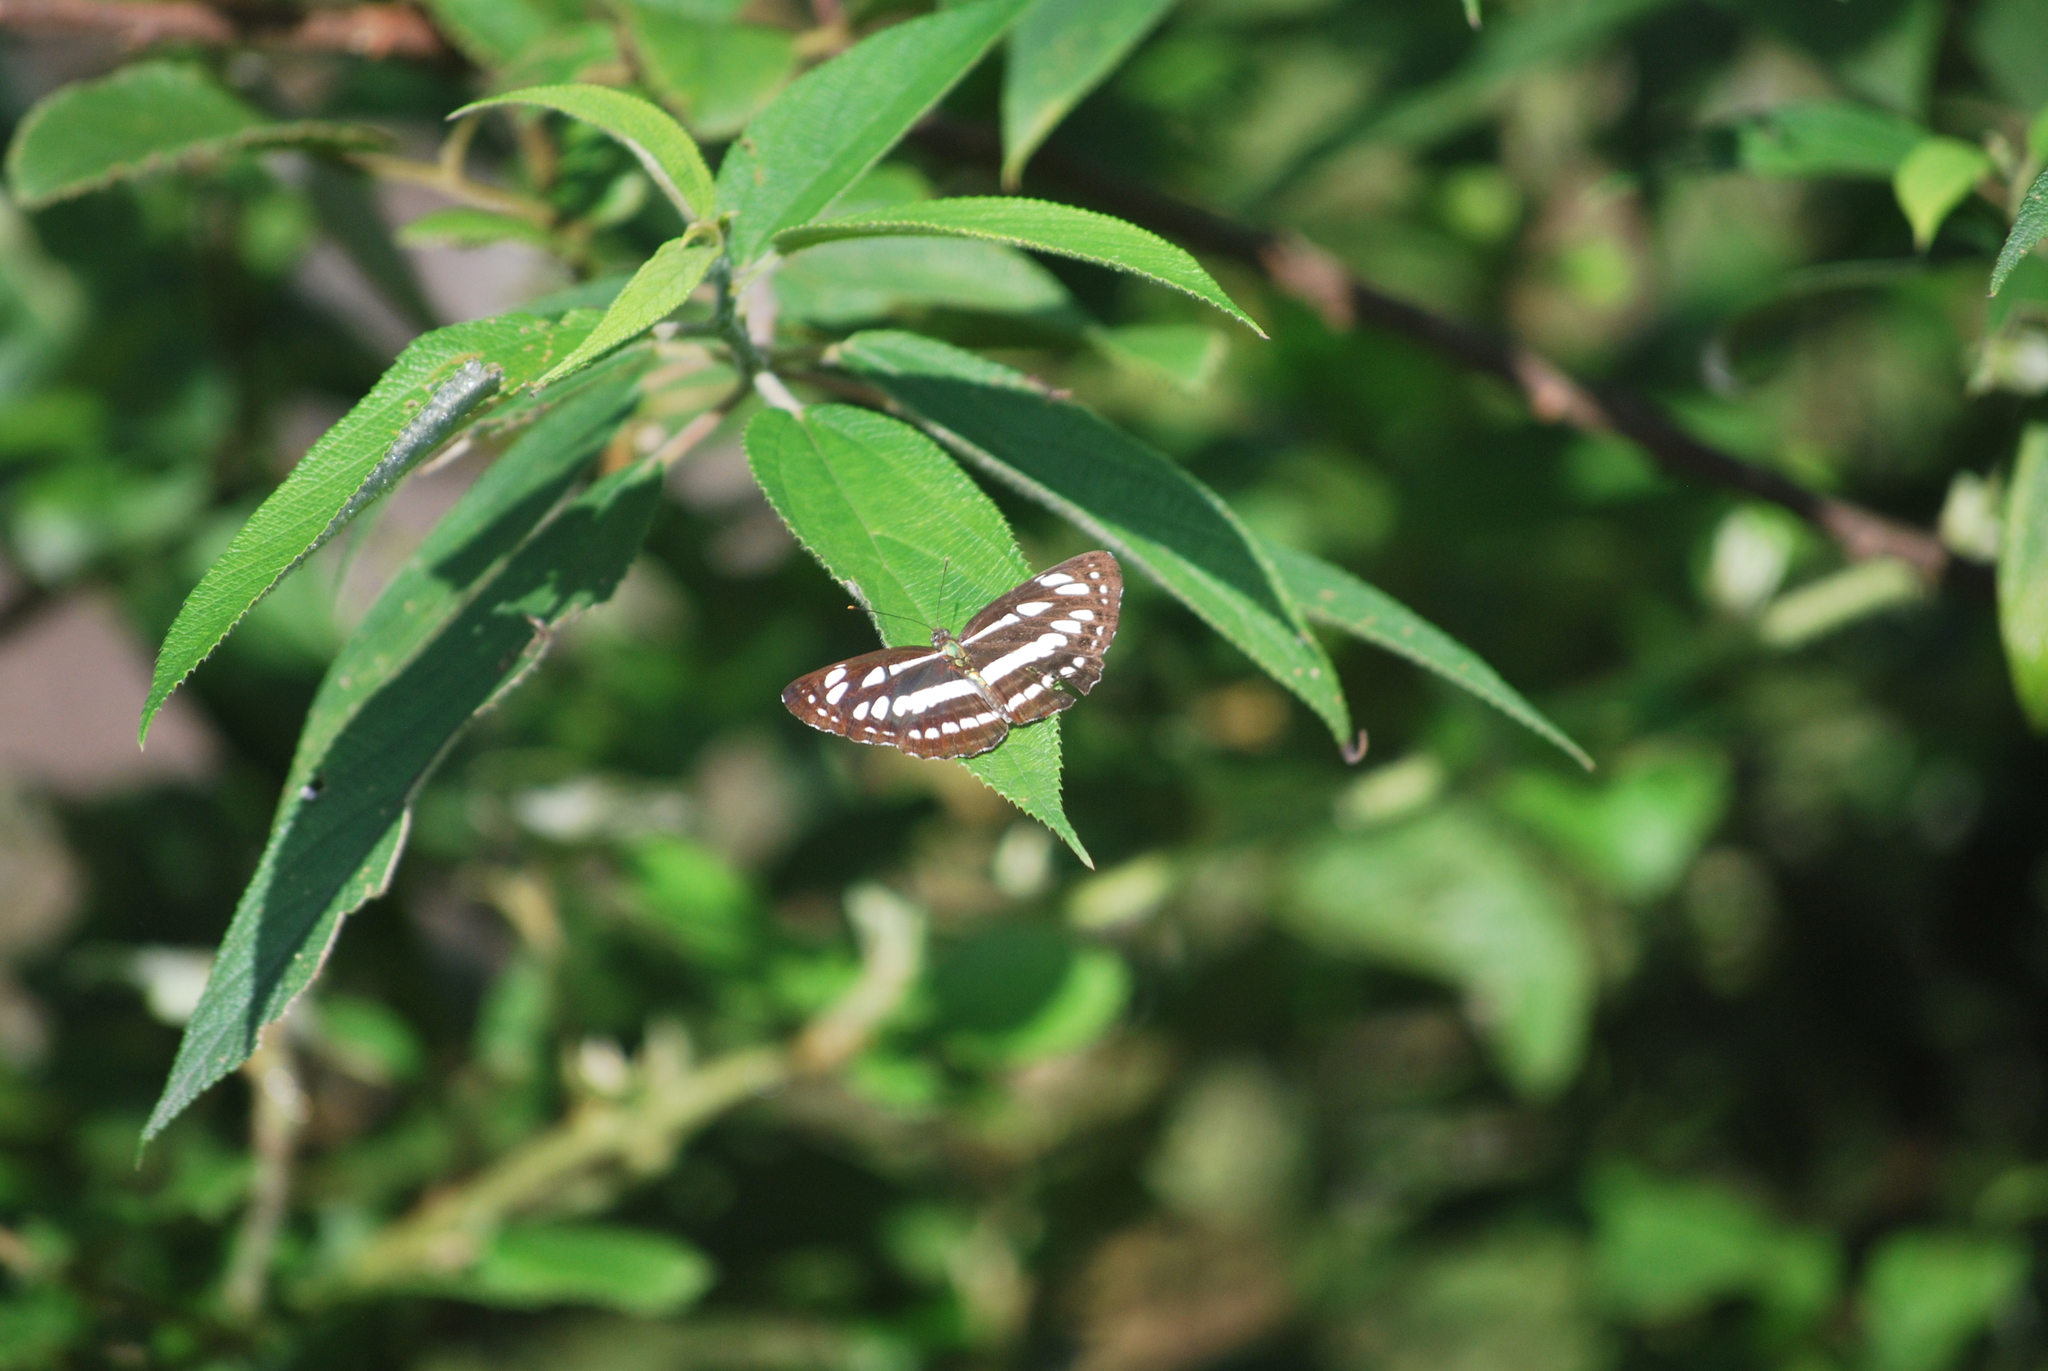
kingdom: Animalia
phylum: Arthropoda
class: Insecta
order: Lepidoptera
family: Nymphalidae
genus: Neptis
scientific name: Neptis hylas
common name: Common sailer
